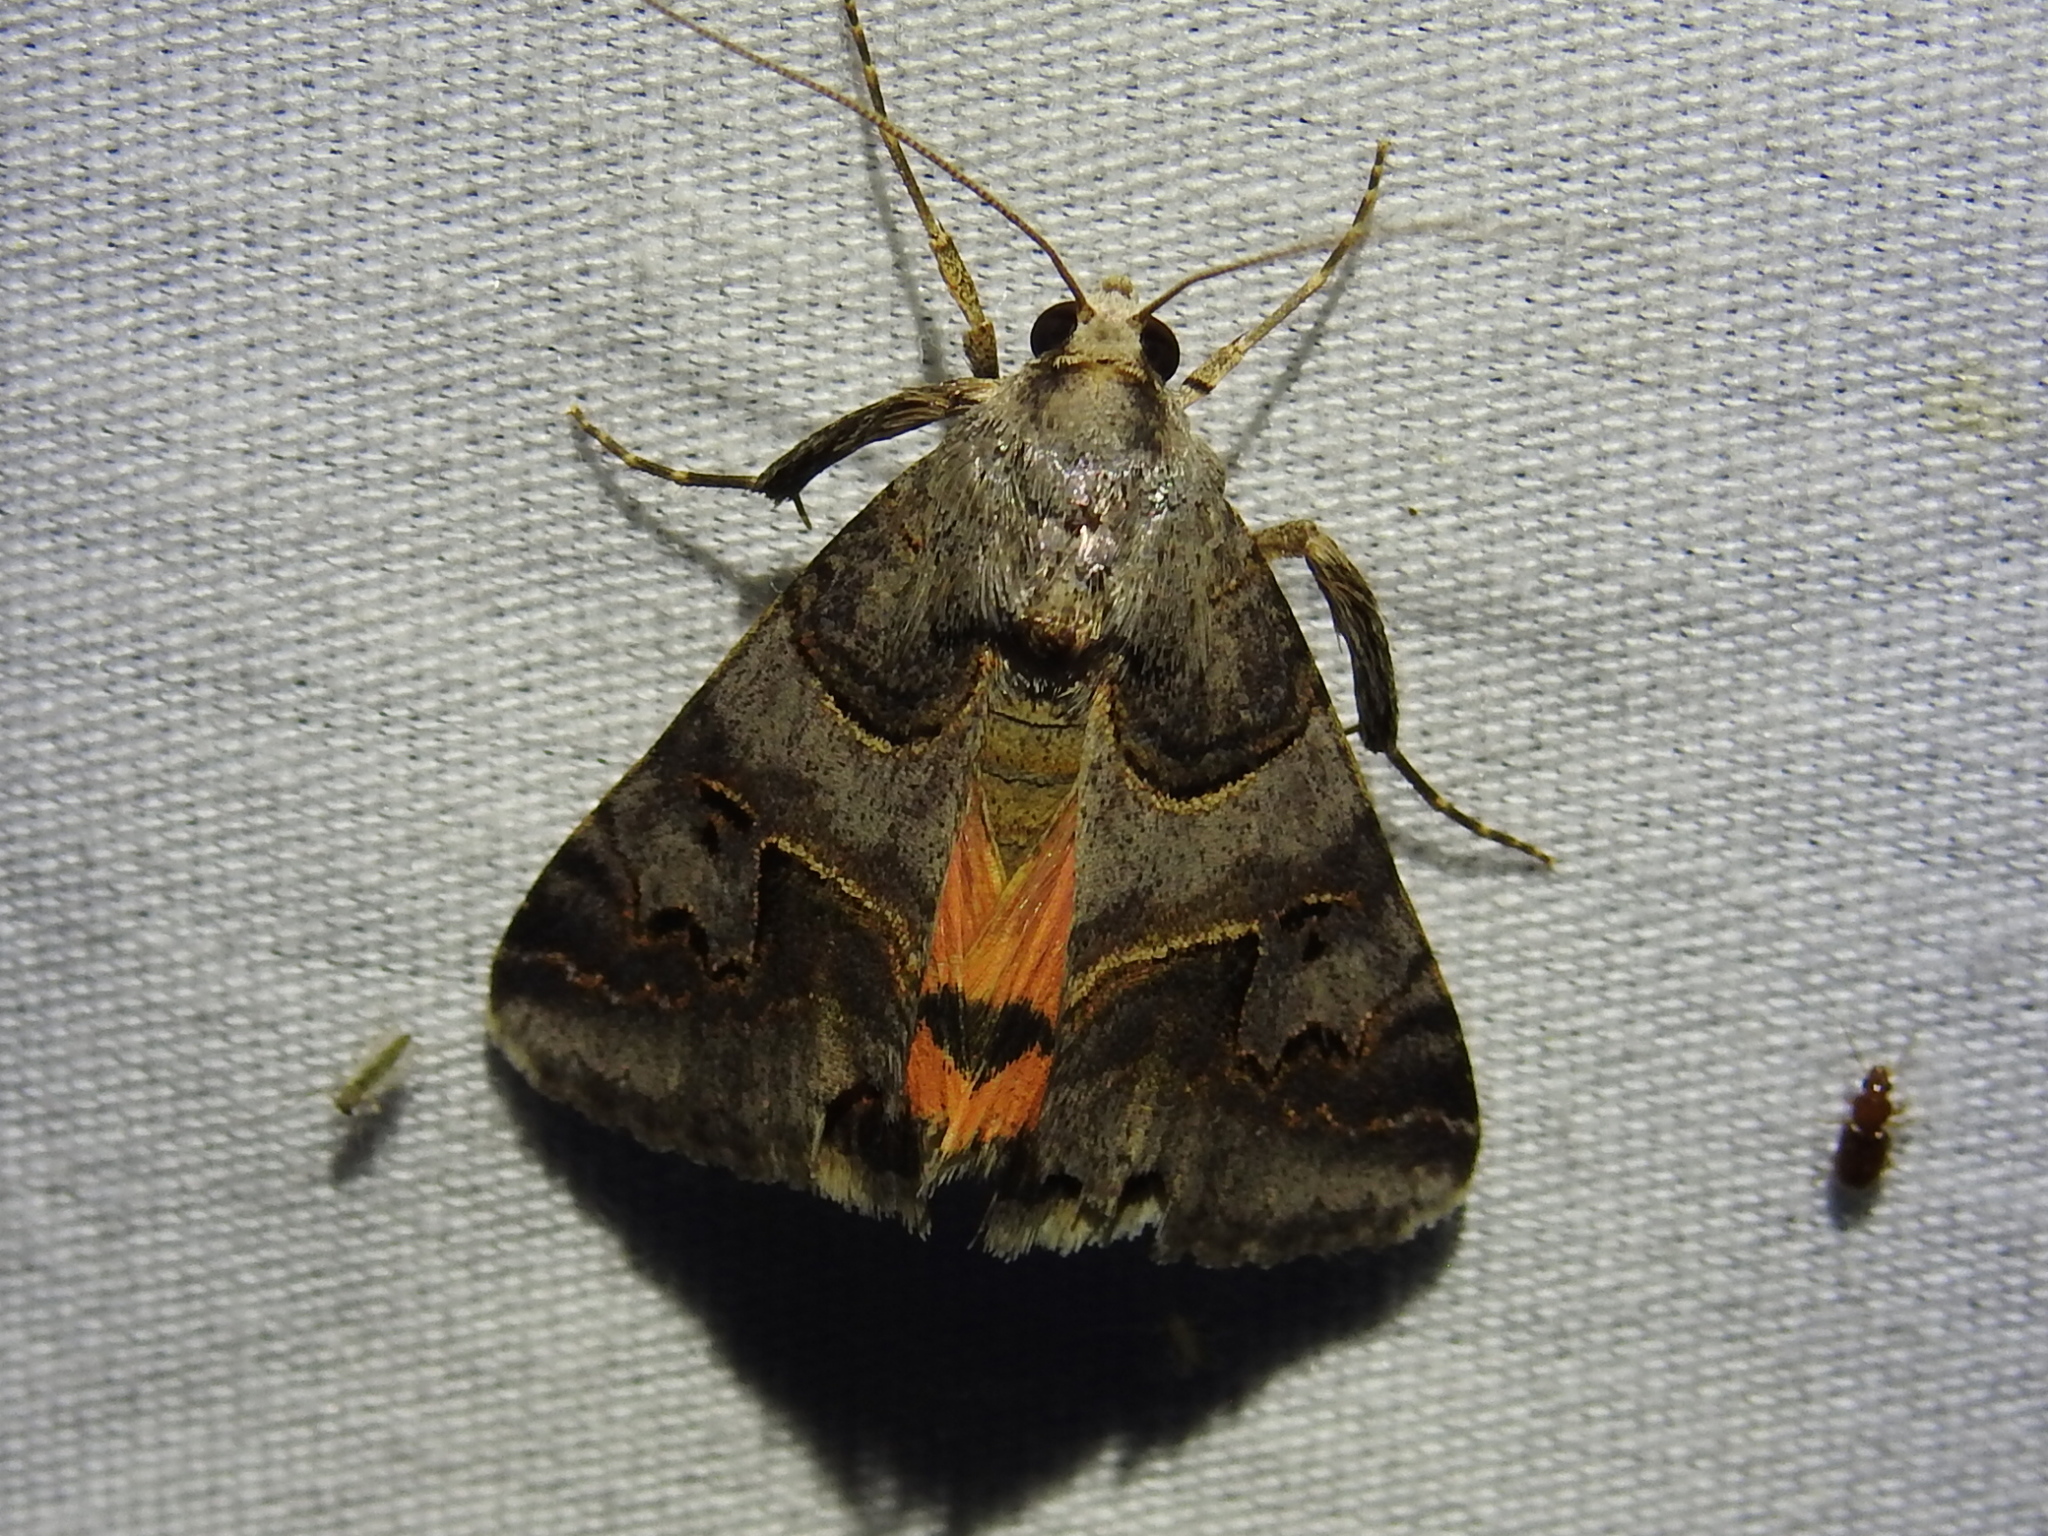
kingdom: Animalia
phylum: Arthropoda
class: Insecta
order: Lepidoptera
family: Erebidae
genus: Drasteria
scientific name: Drasteria ingeniculata
